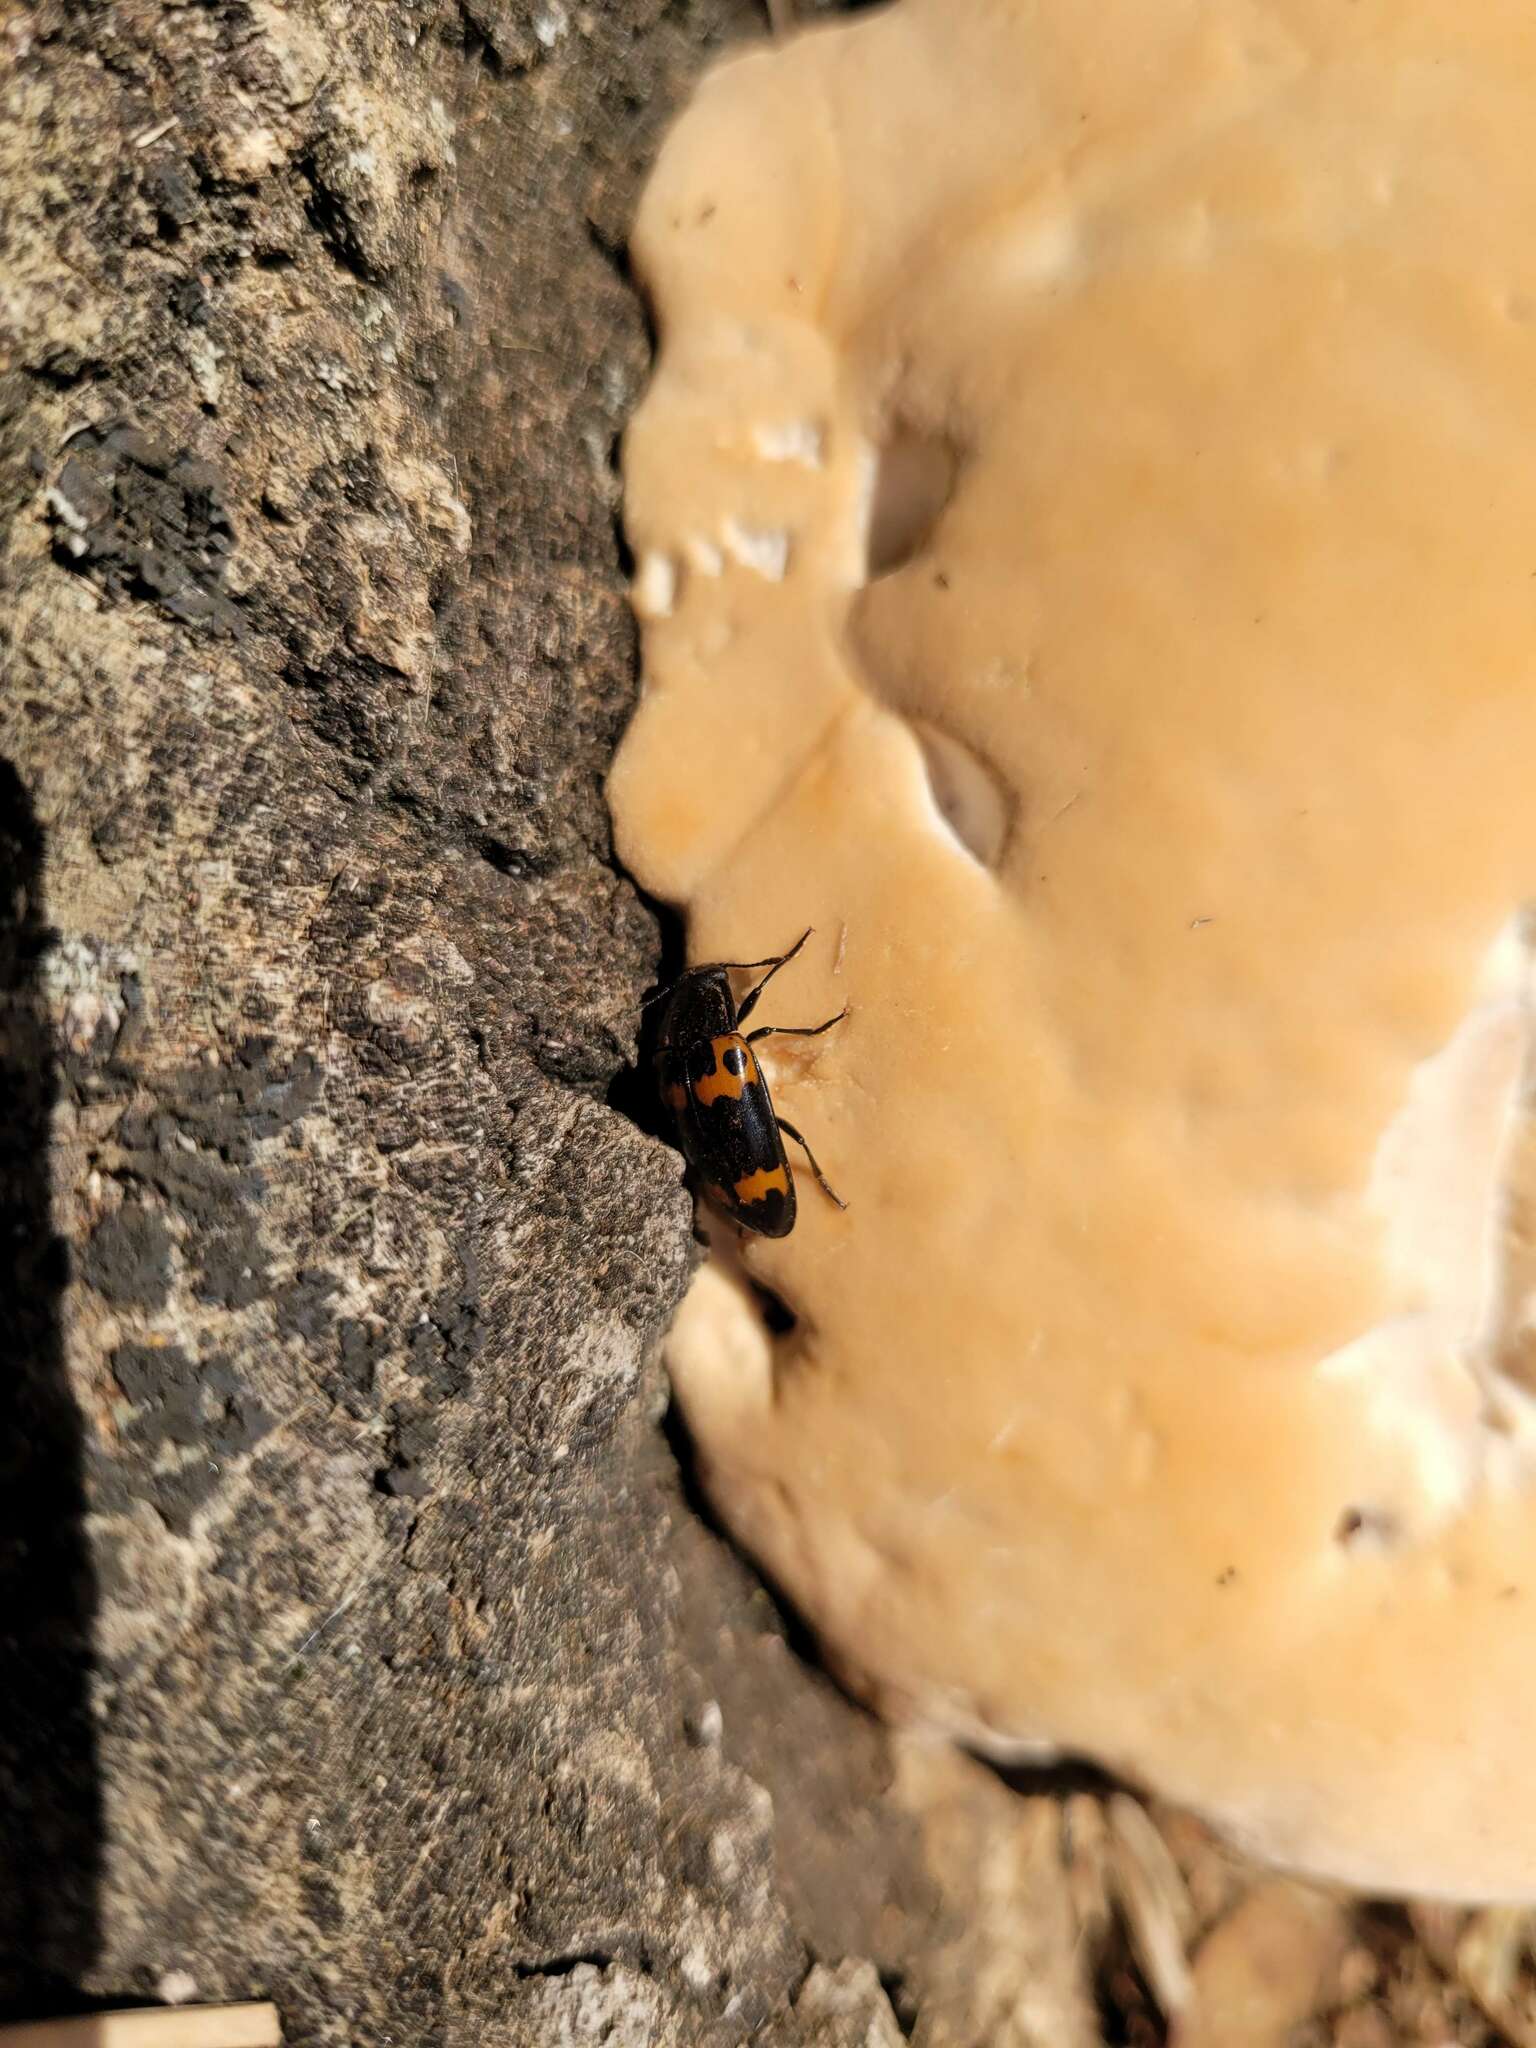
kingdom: Animalia
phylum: Arthropoda
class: Insecta
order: Coleoptera
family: Erotylidae
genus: Megalodacne
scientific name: Megalodacne fasciata
